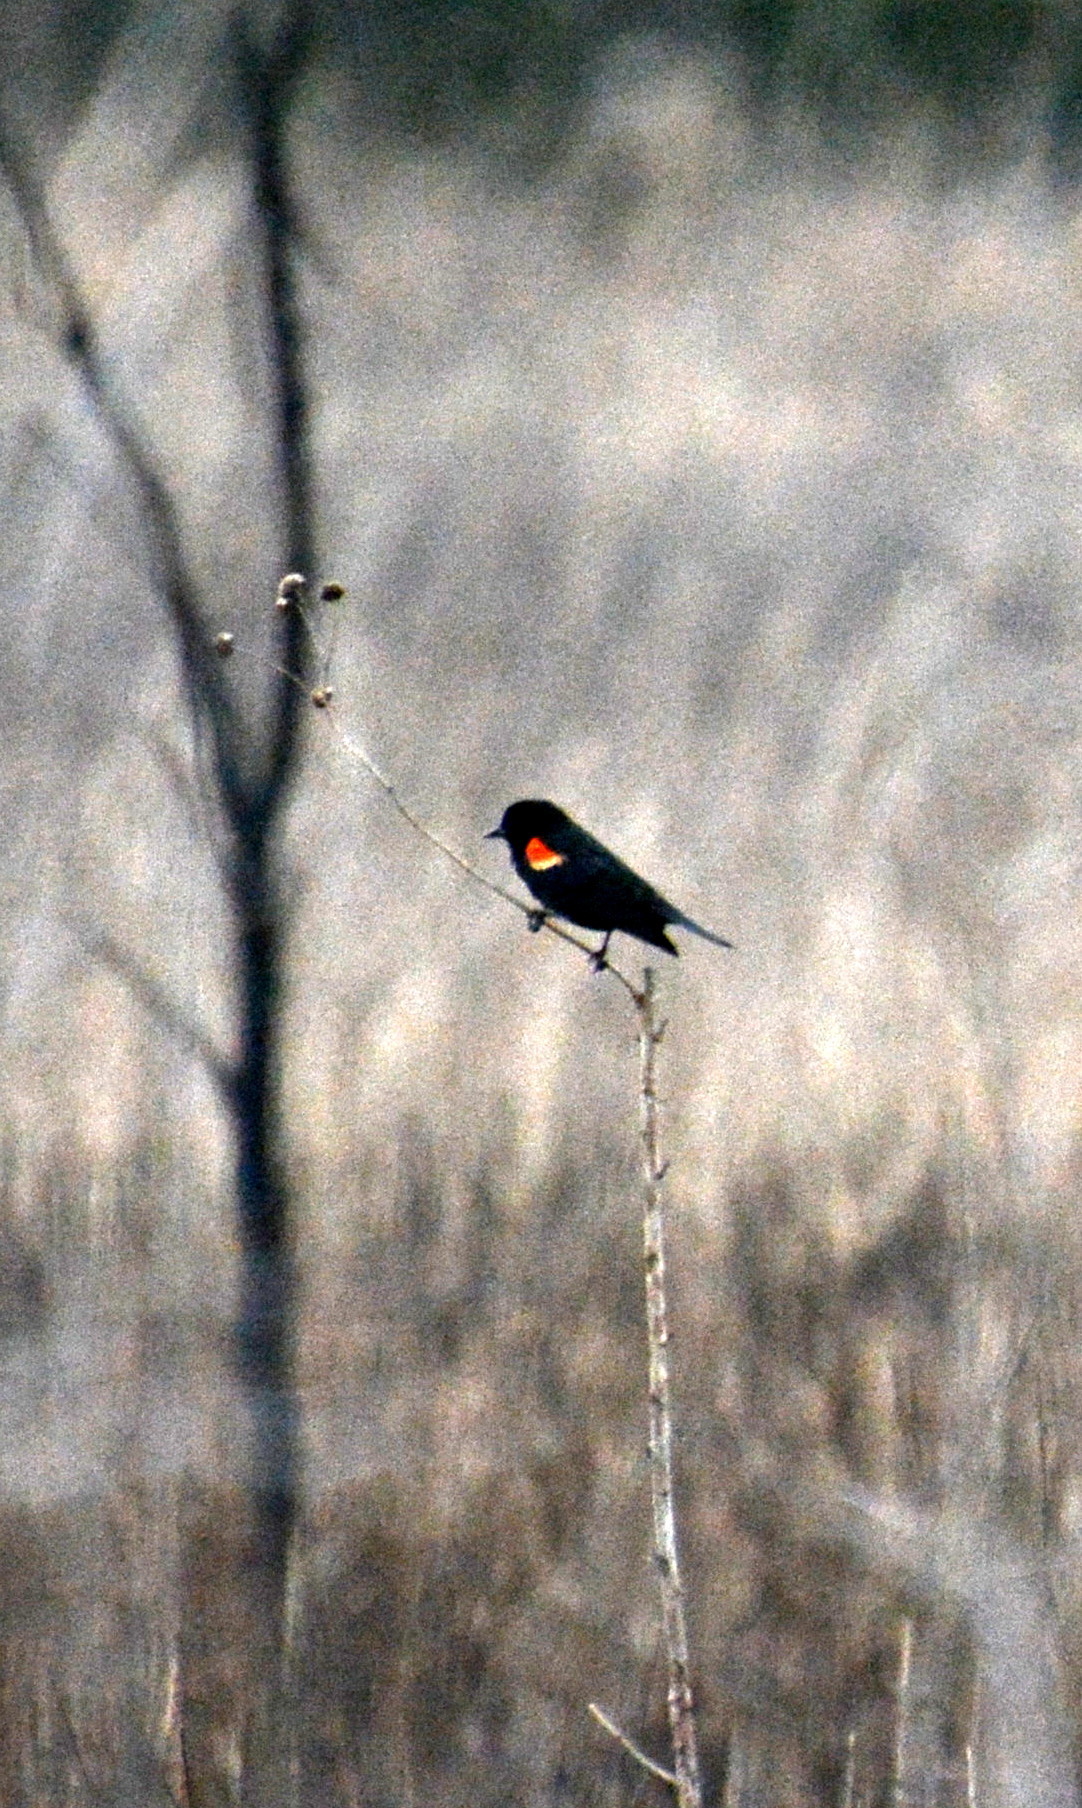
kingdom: Animalia
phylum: Chordata
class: Aves
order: Passeriformes
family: Icteridae
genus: Agelaius
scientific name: Agelaius phoeniceus
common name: Red-winged blackbird
